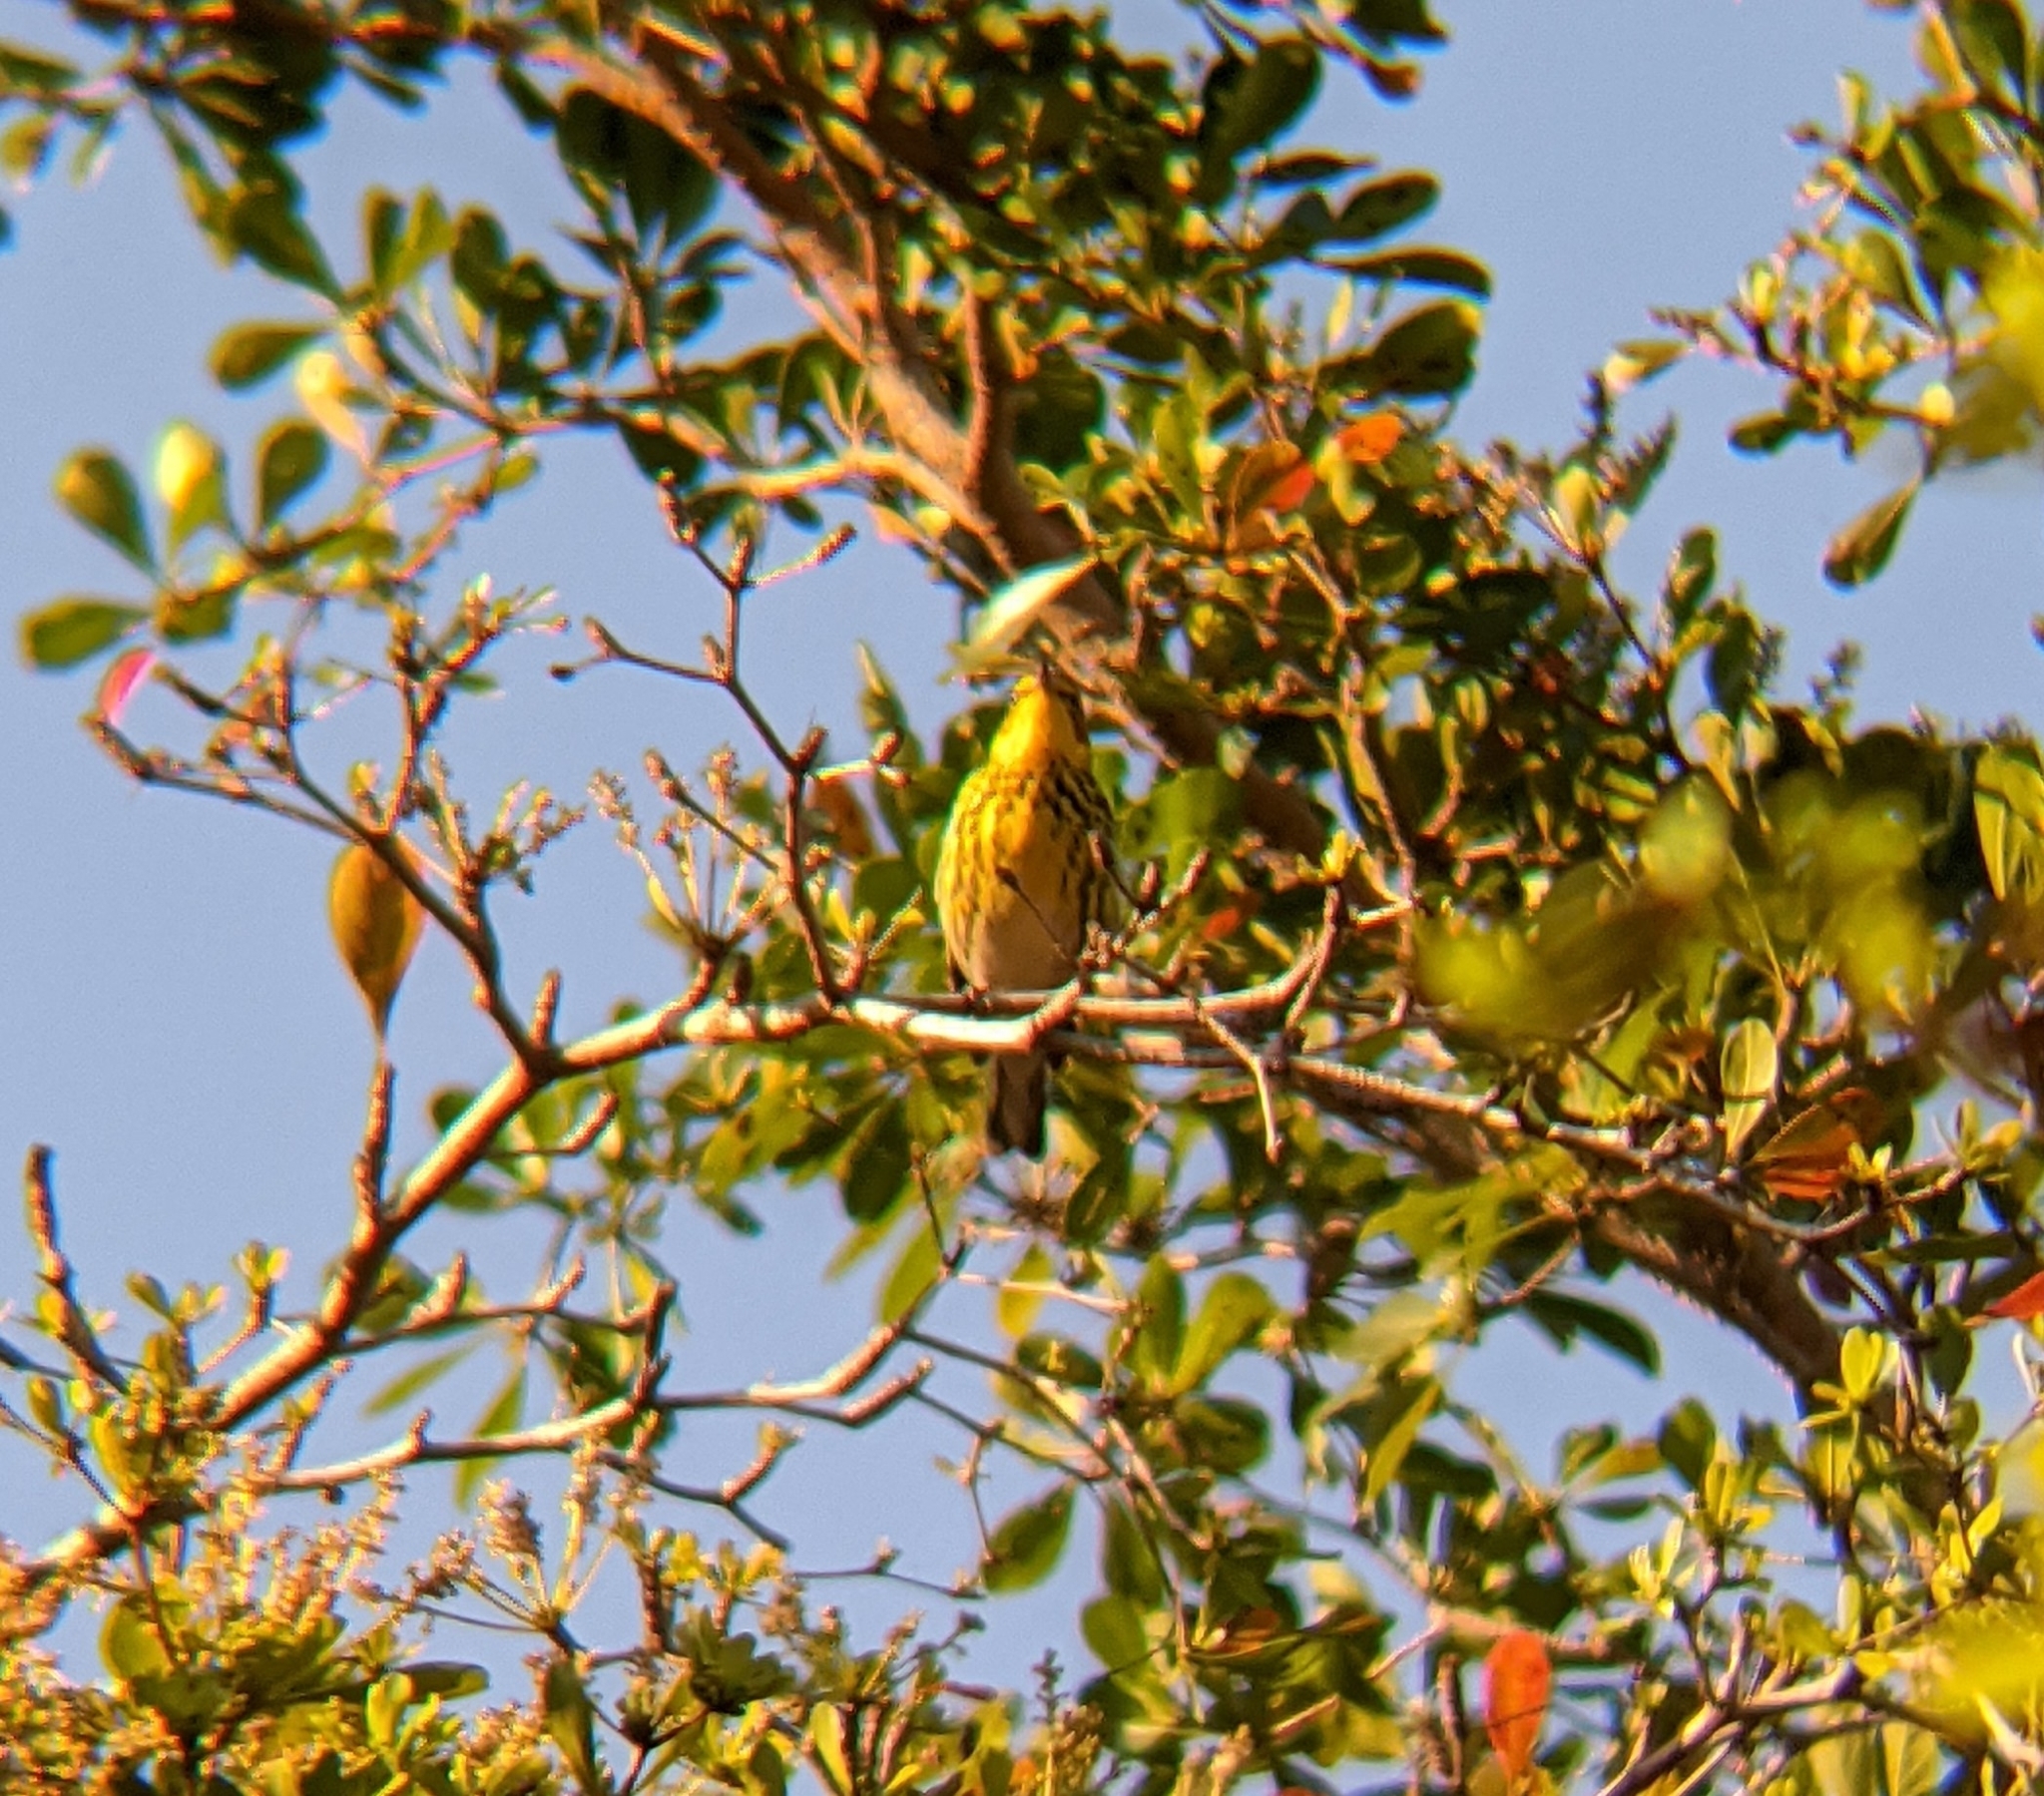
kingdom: Animalia
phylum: Chordata
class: Aves
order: Passeriformes
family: Parulidae
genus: Setophaga
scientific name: Setophaga tigrina
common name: Cape may warbler
